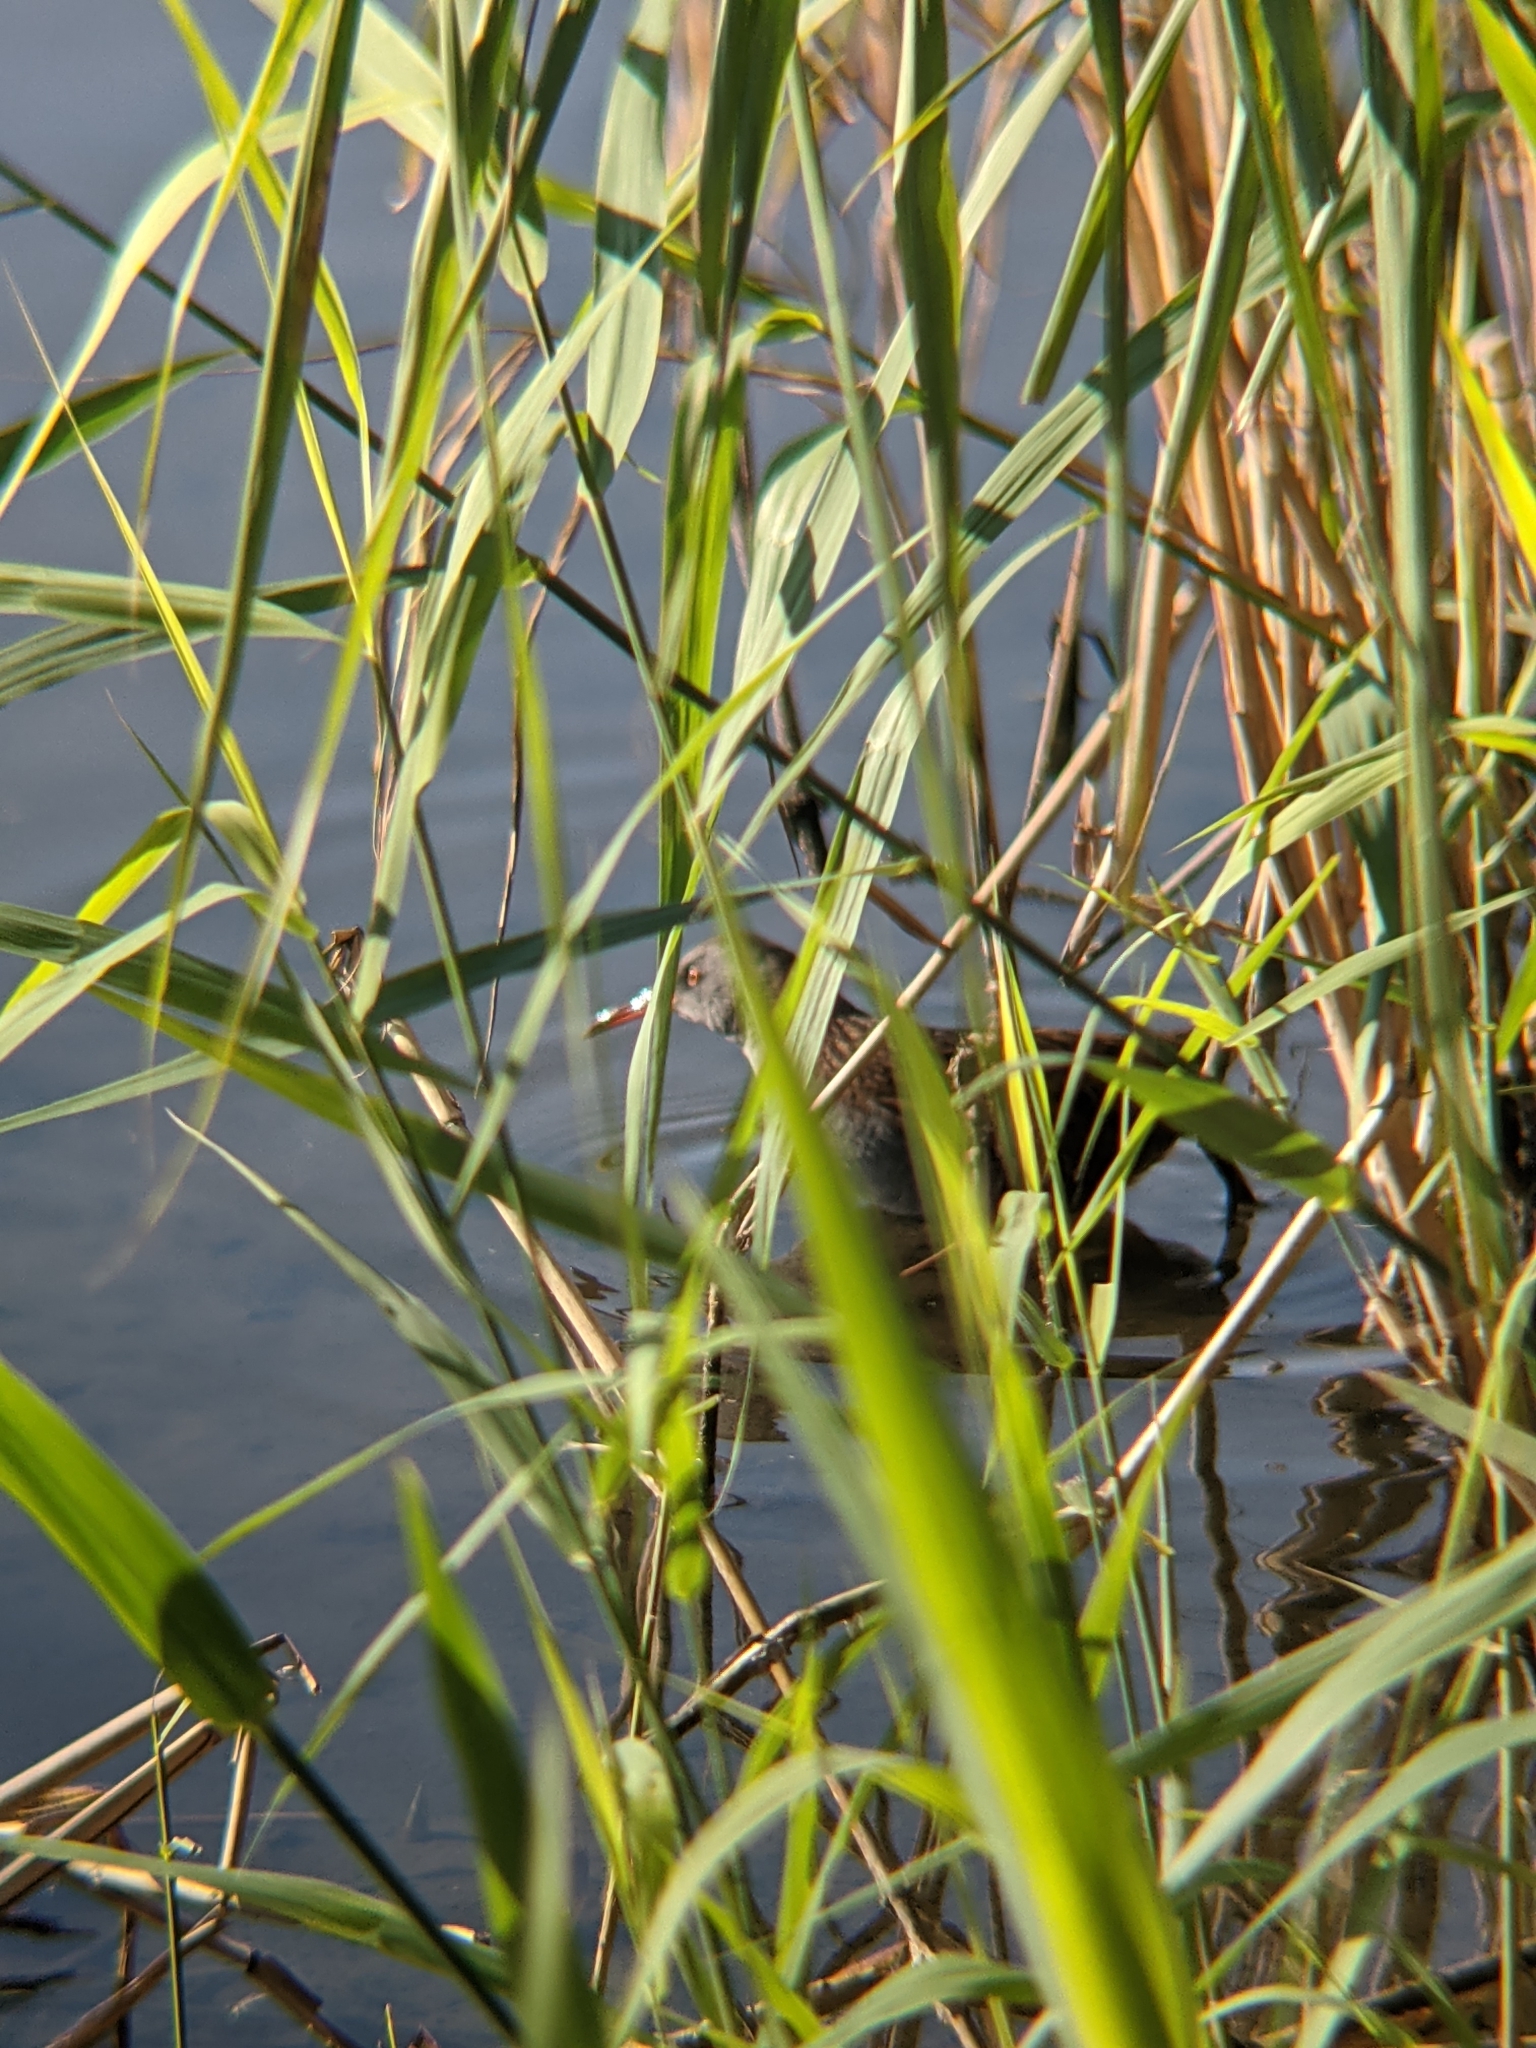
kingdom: Animalia
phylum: Chordata
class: Aves
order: Gruiformes
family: Rallidae
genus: Rallus
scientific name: Rallus aquaticus
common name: Water rail
